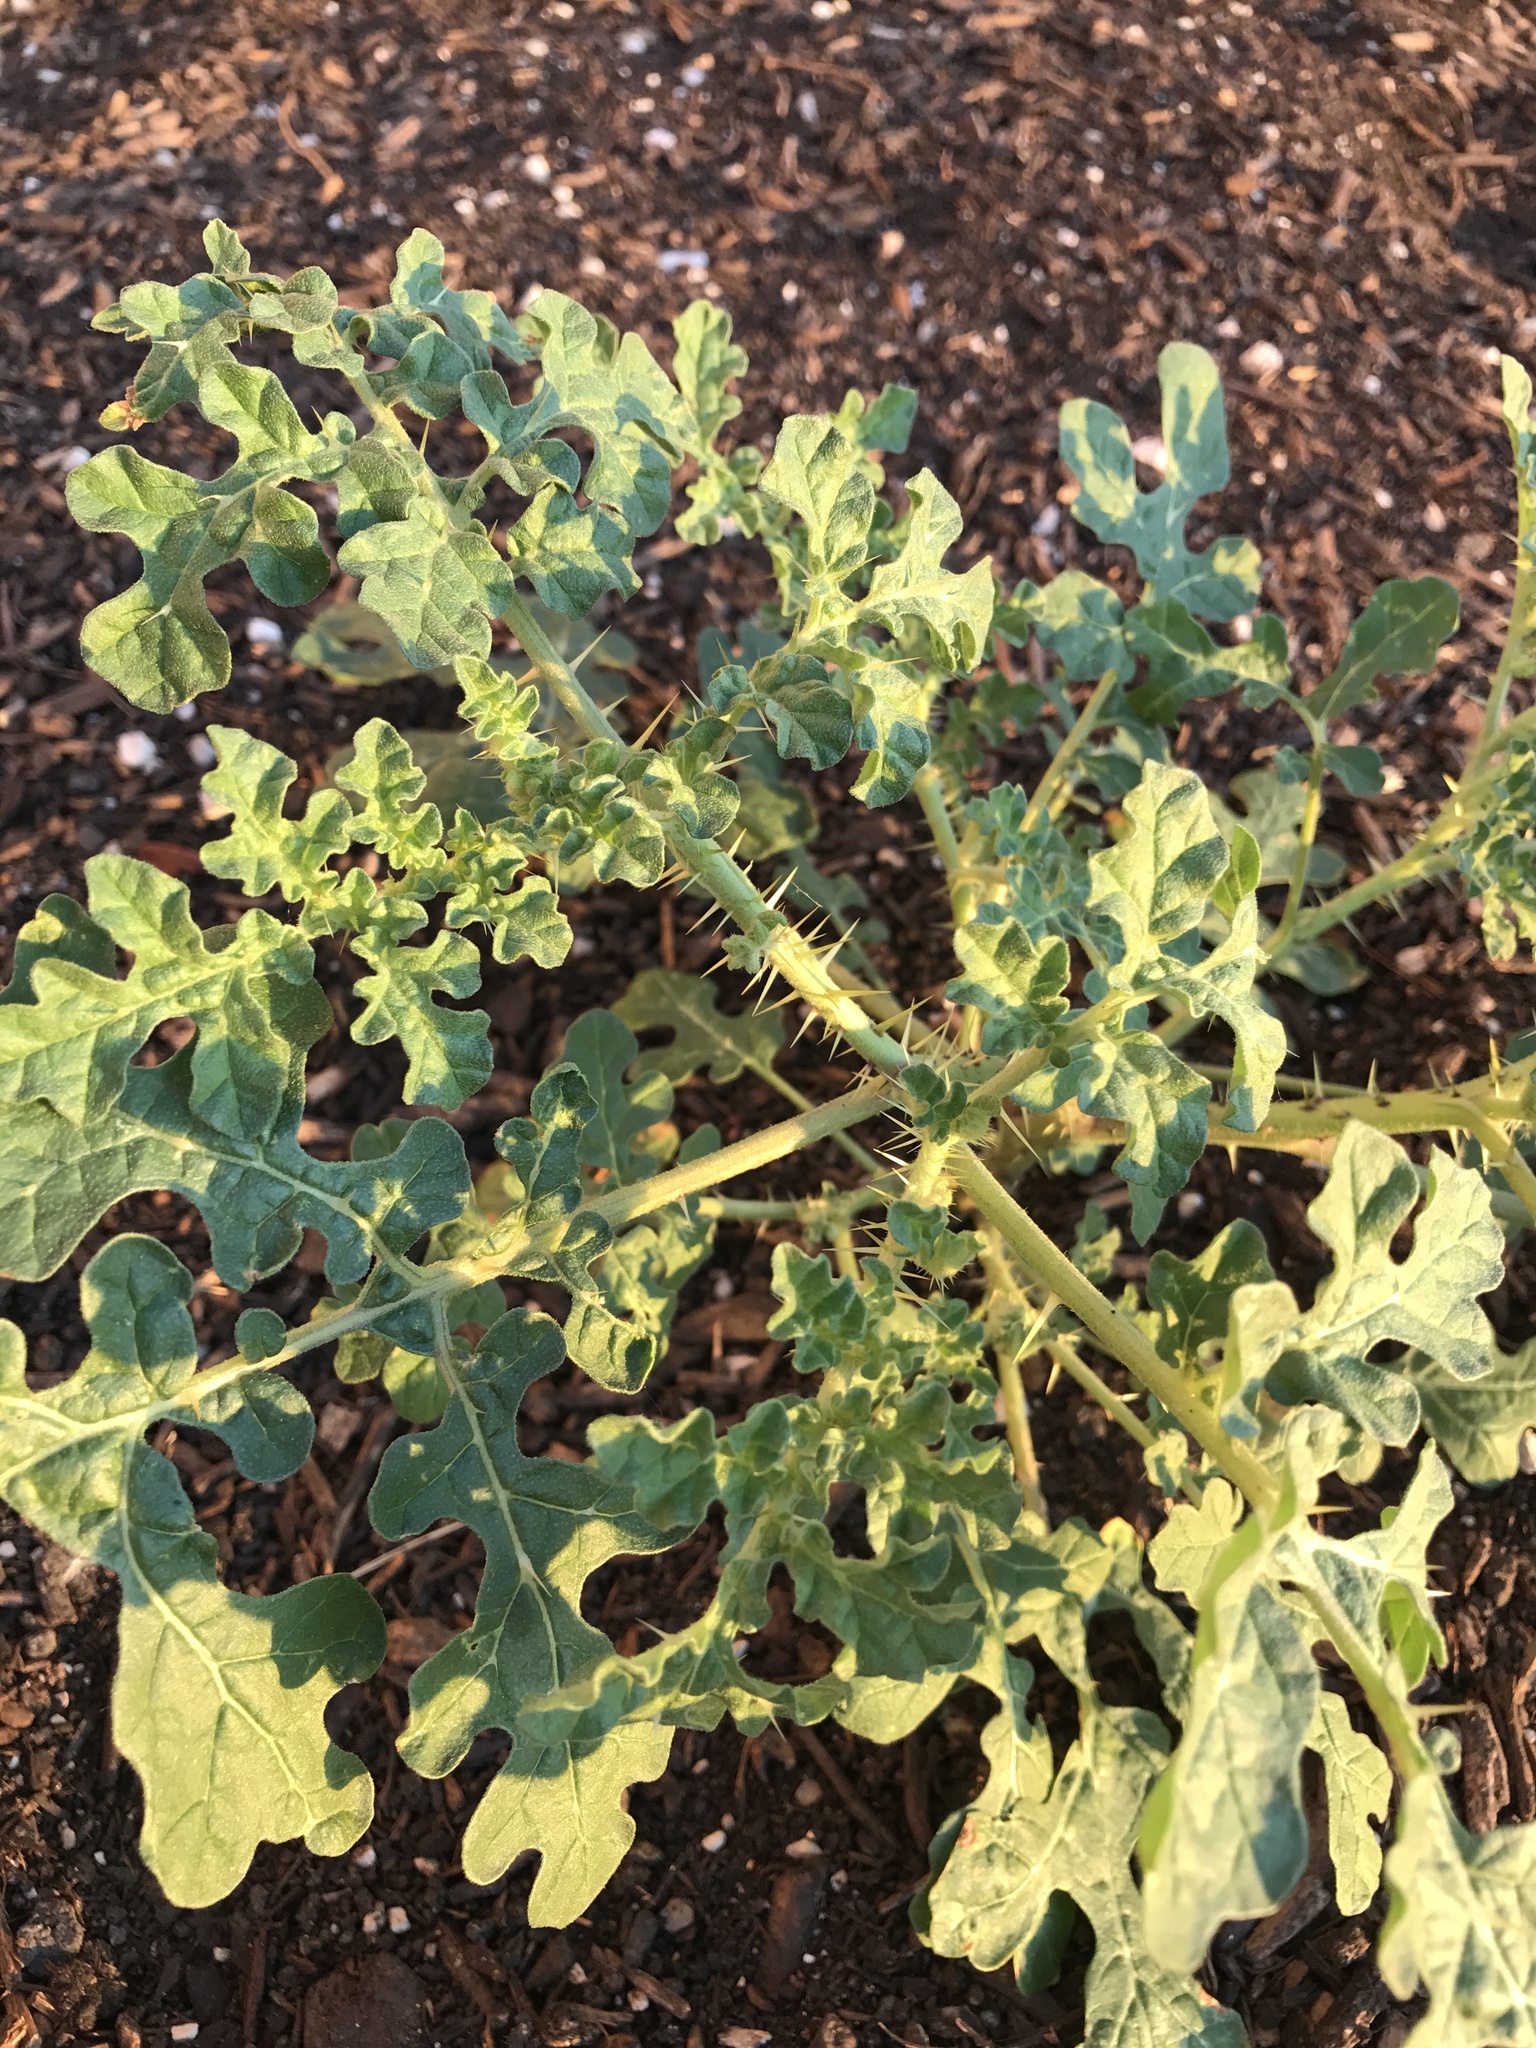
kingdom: Plantae
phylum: Tracheophyta
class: Magnoliopsida
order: Solanales
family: Solanaceae
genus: Solanum
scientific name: Solanum angustifolium
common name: Buffalobur nightshade
